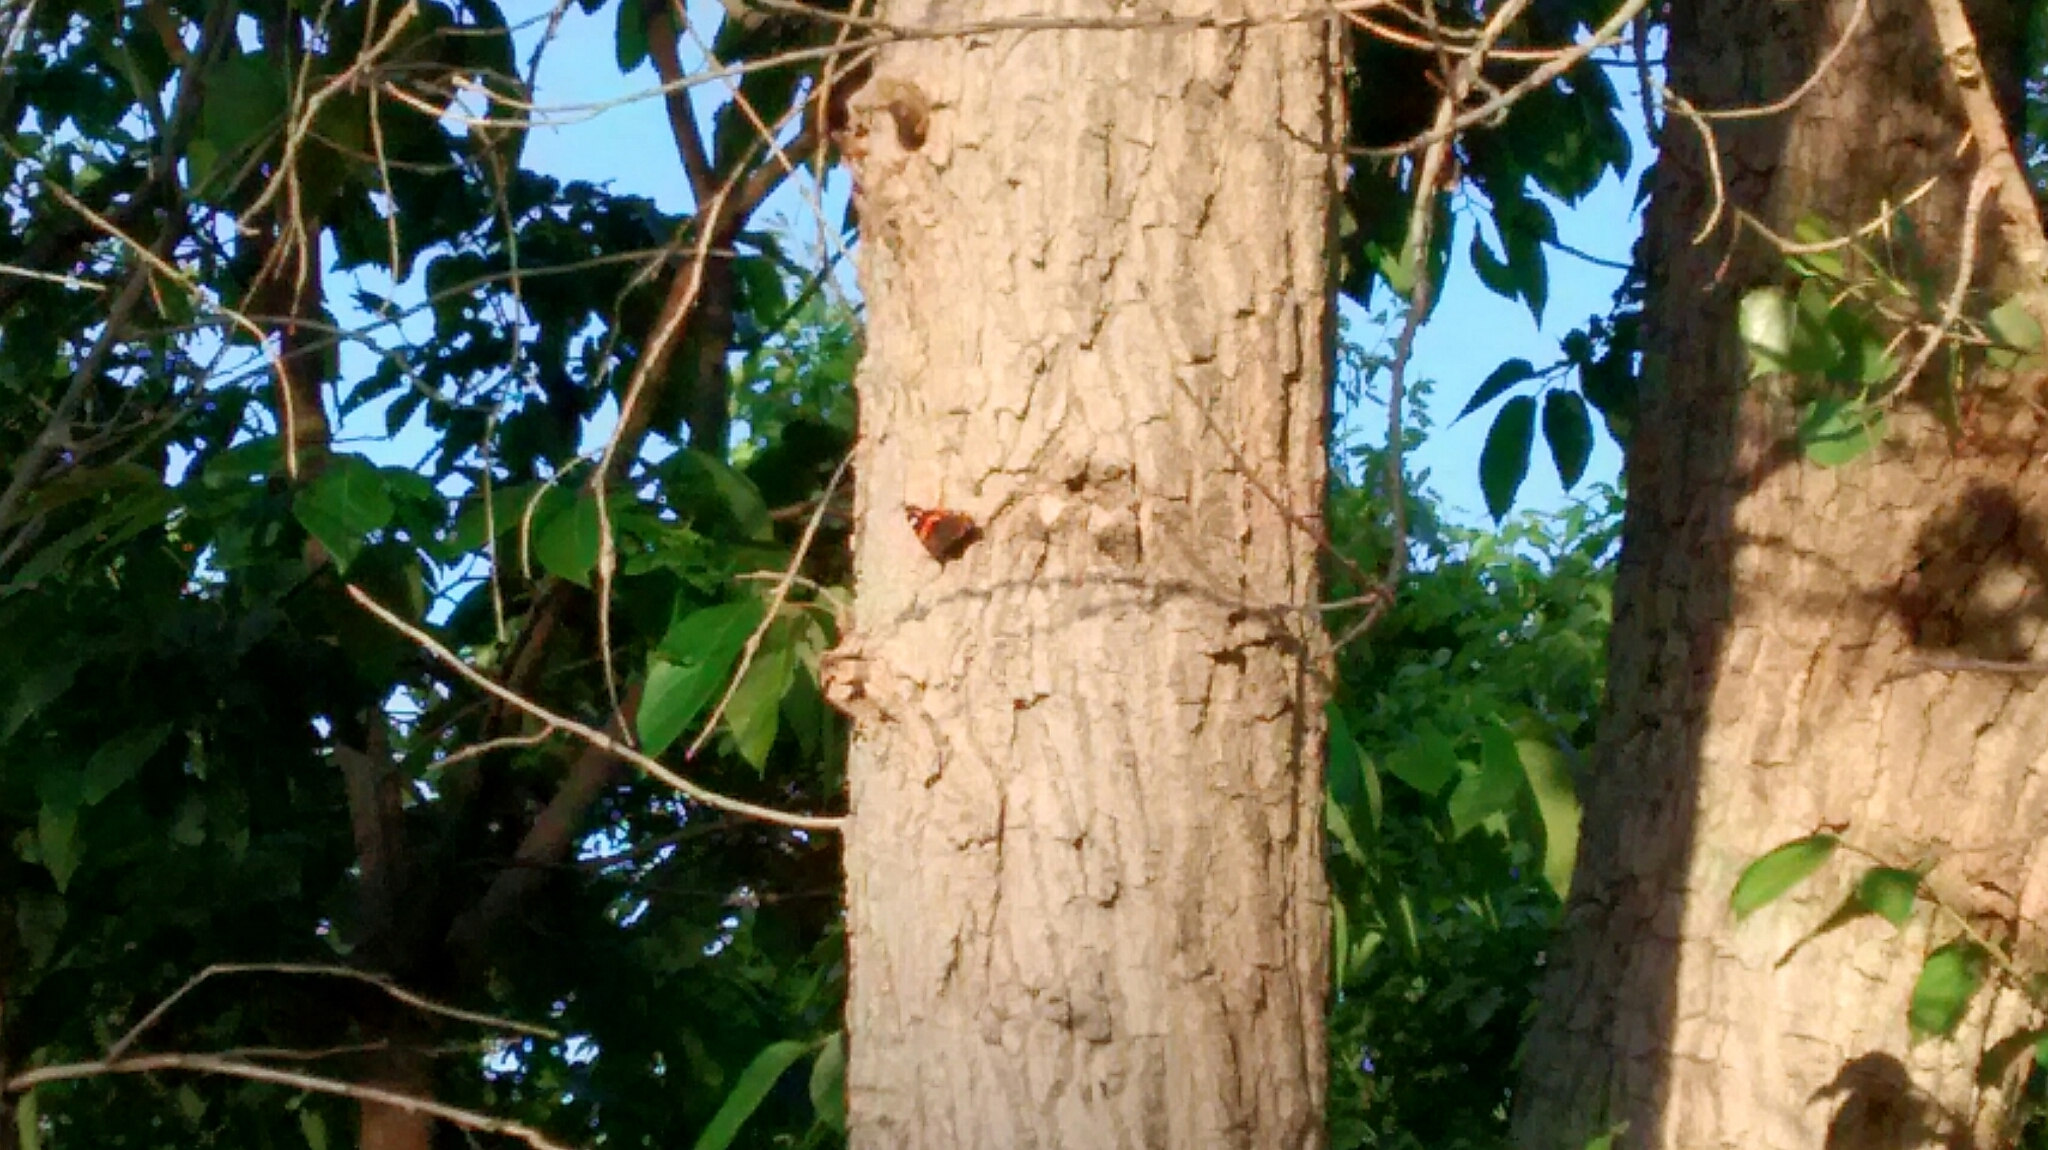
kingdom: Animalia
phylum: Arthropoda
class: Insecta
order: Lepidoptera
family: Nymphalidae
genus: Vanessa
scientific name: Vanessa atalanta
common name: Red admiral
